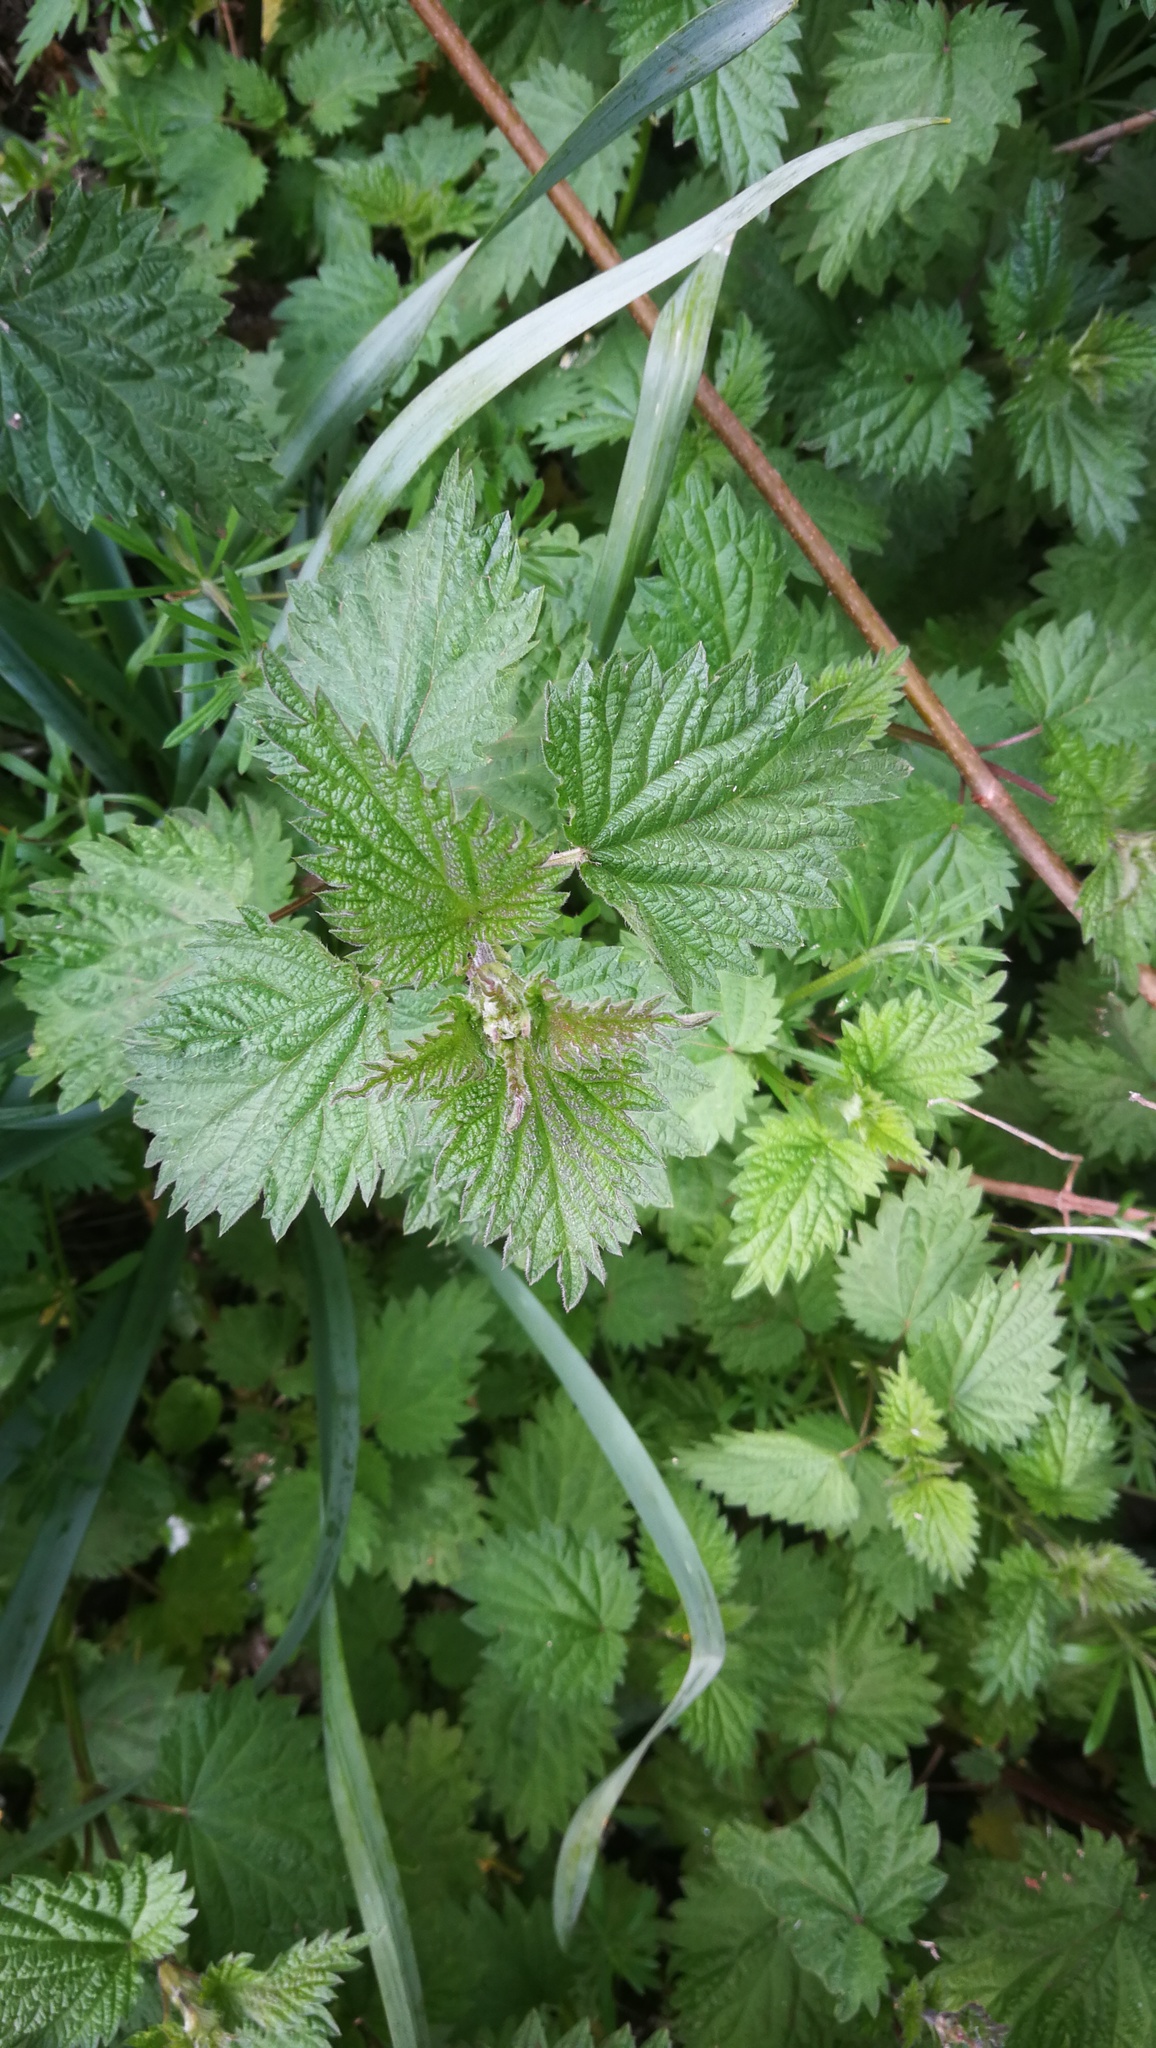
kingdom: Plantae
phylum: Tracheophyta
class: Magnoliopsida
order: Rosales
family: Urticaceae
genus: Urtica
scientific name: Urtica dioica
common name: Common nettle
